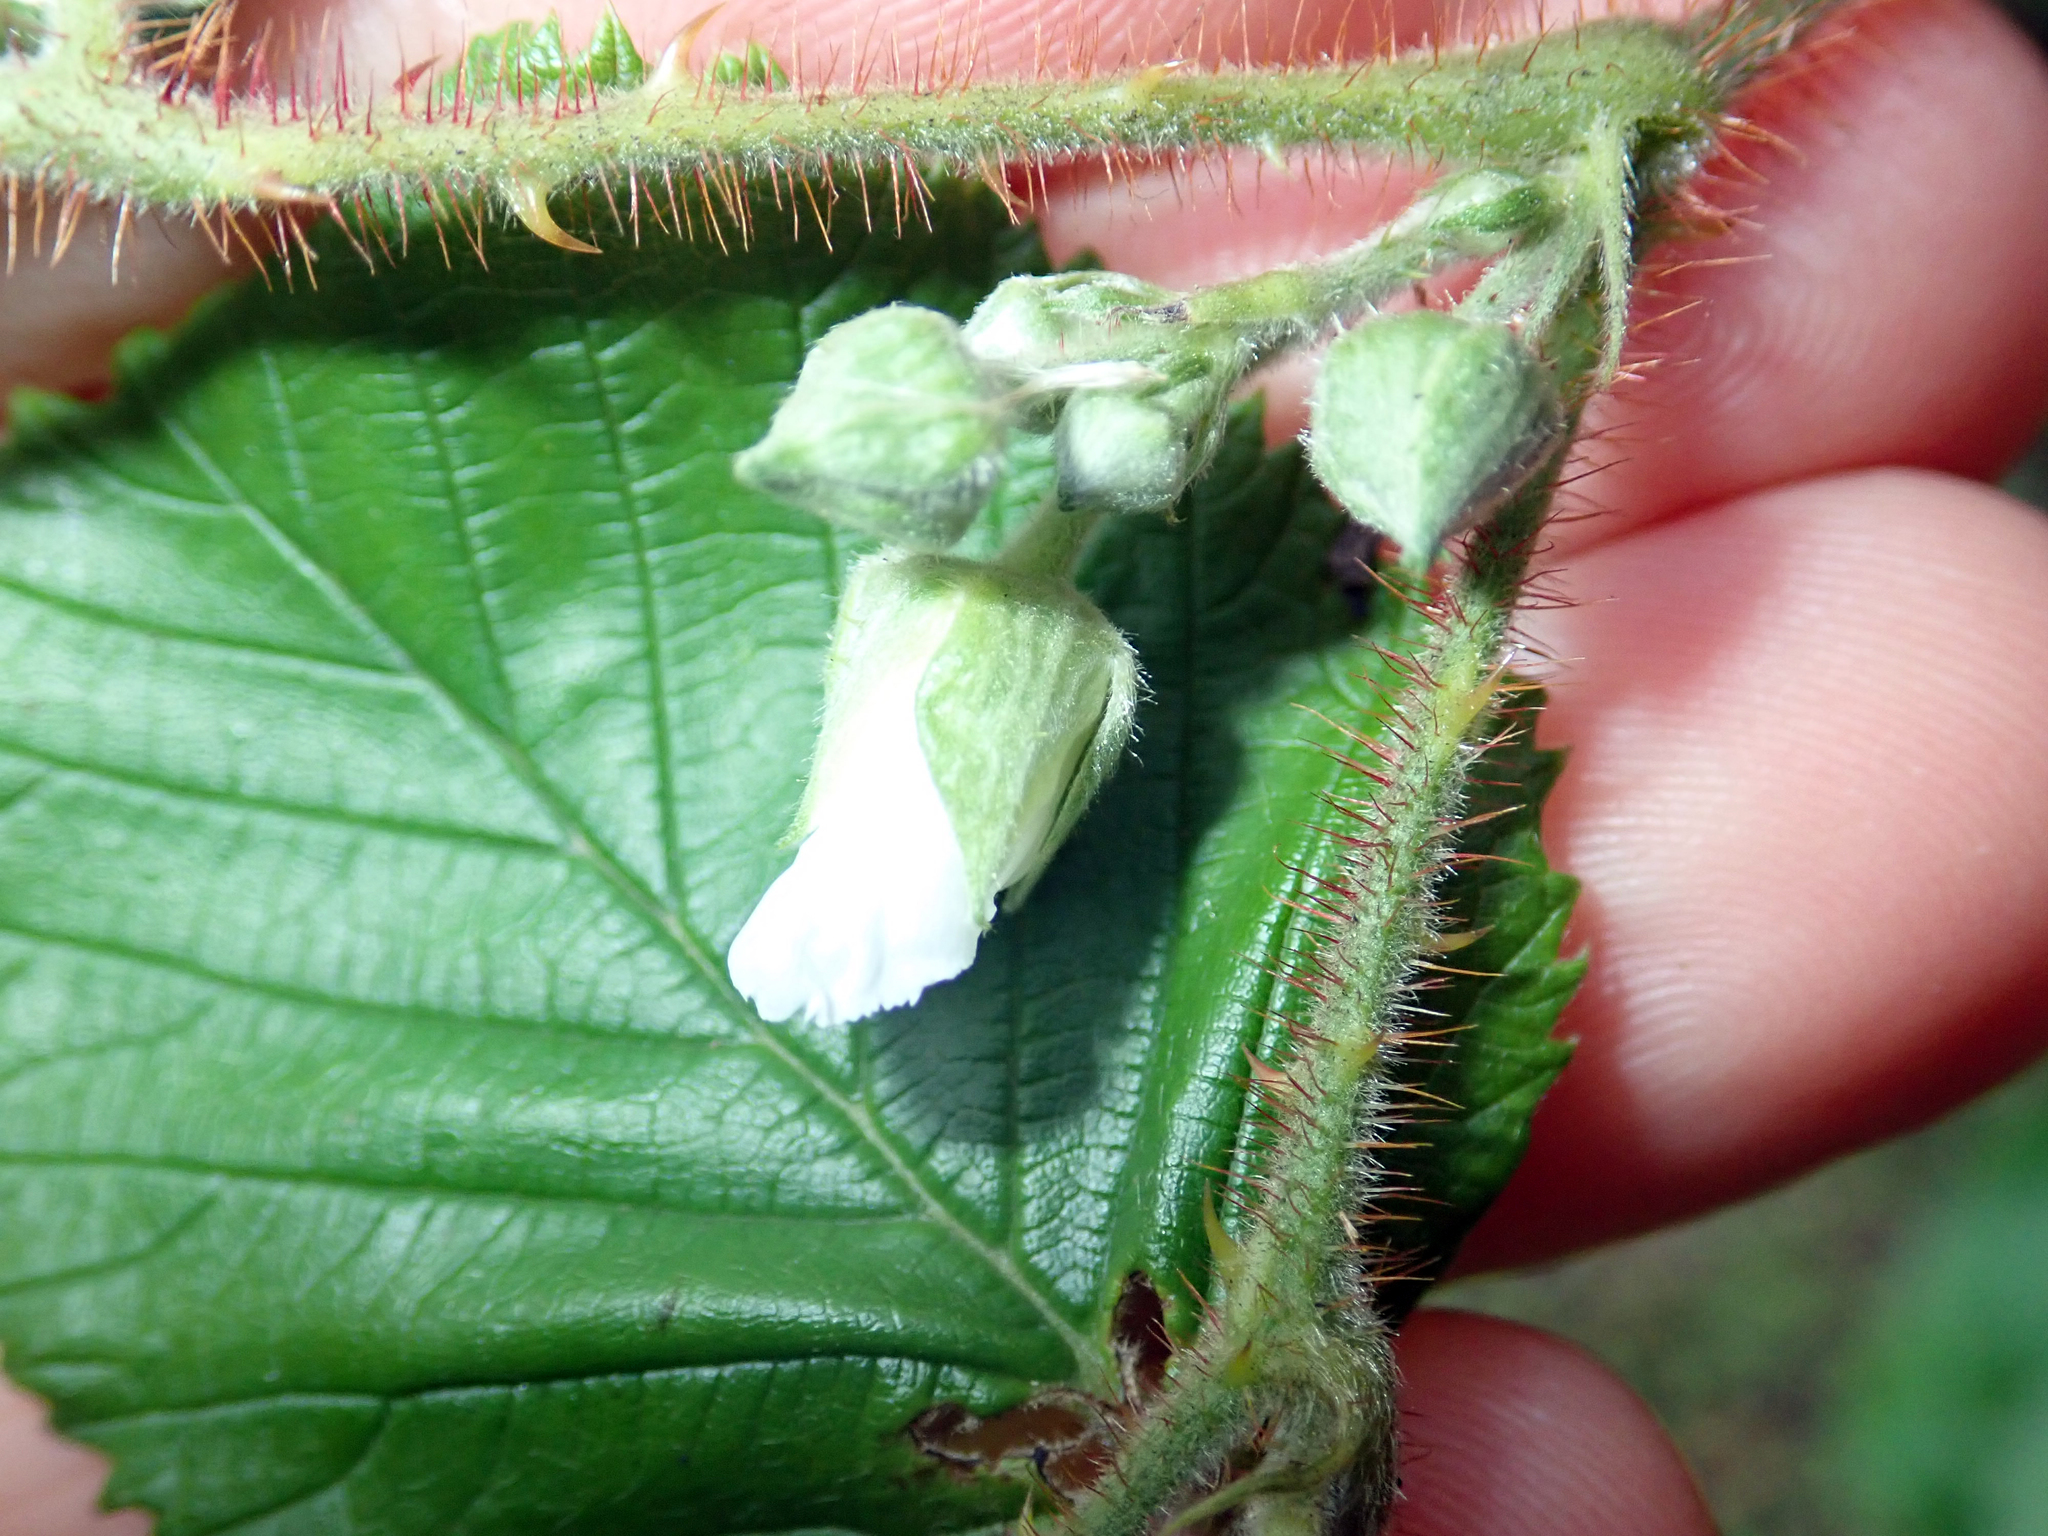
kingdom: Plantae
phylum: Tracheophyta
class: Magnoliopsida
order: Rosales
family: Rosaceae
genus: Rubus
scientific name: Rubus ellipticus
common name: Cheeseberry
